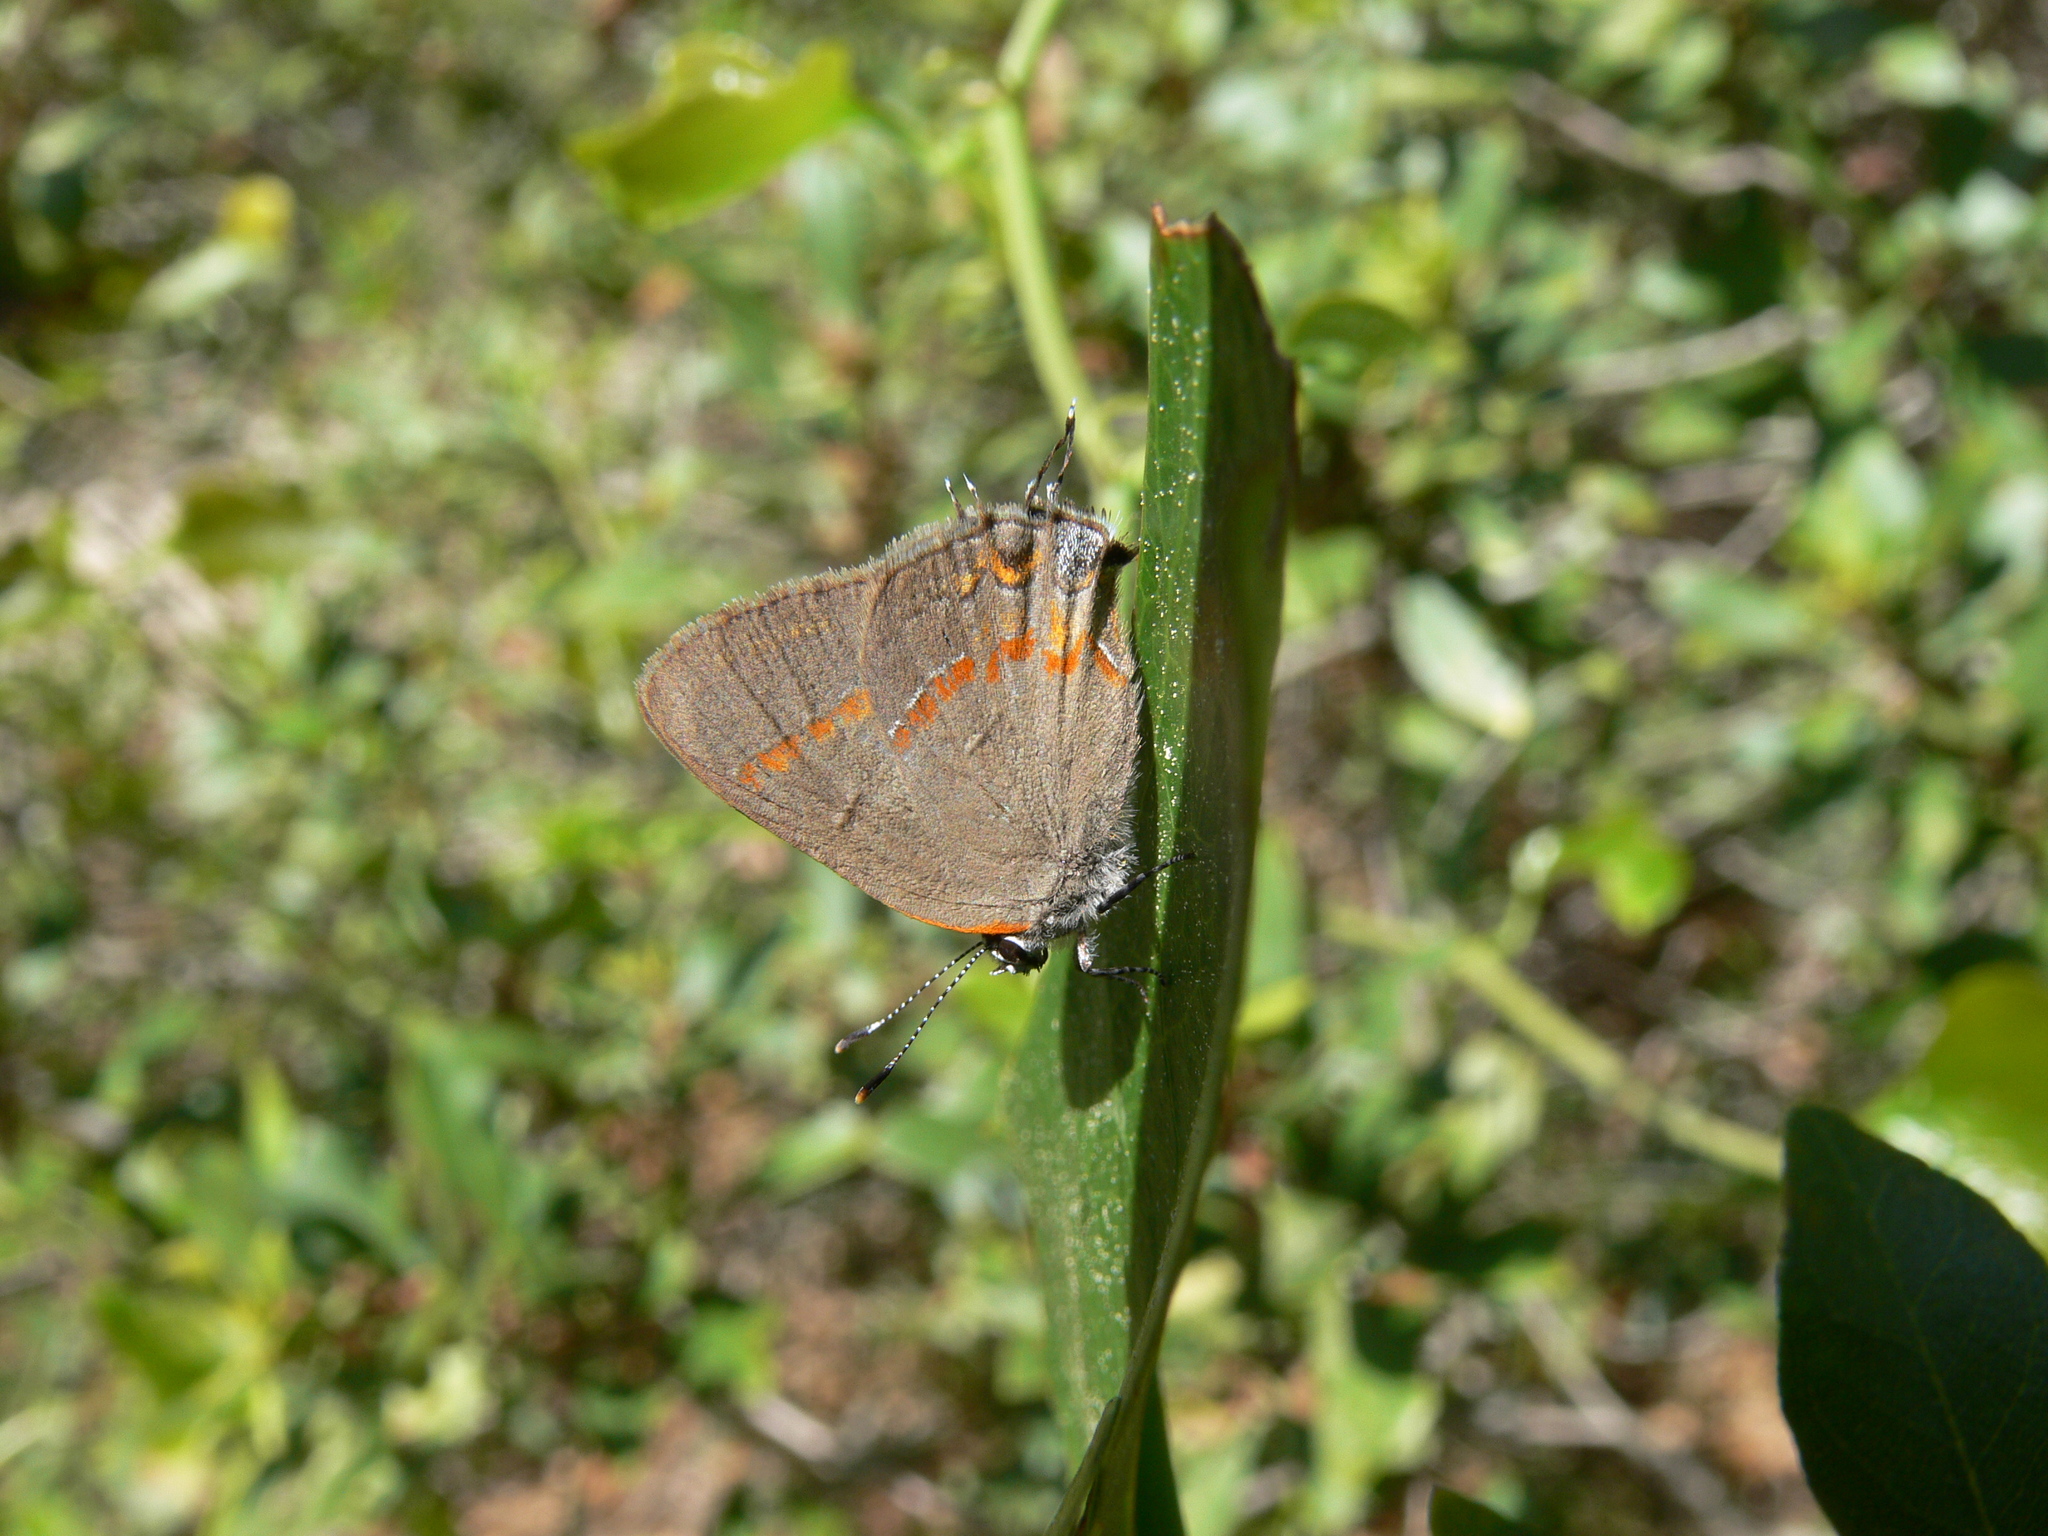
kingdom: Animalia
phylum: Arthropoda
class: Insecta
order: Lepidoptera
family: Lycaenidae
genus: Calycopis
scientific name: Calycopis cecrops
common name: Red-banded hairstreak
